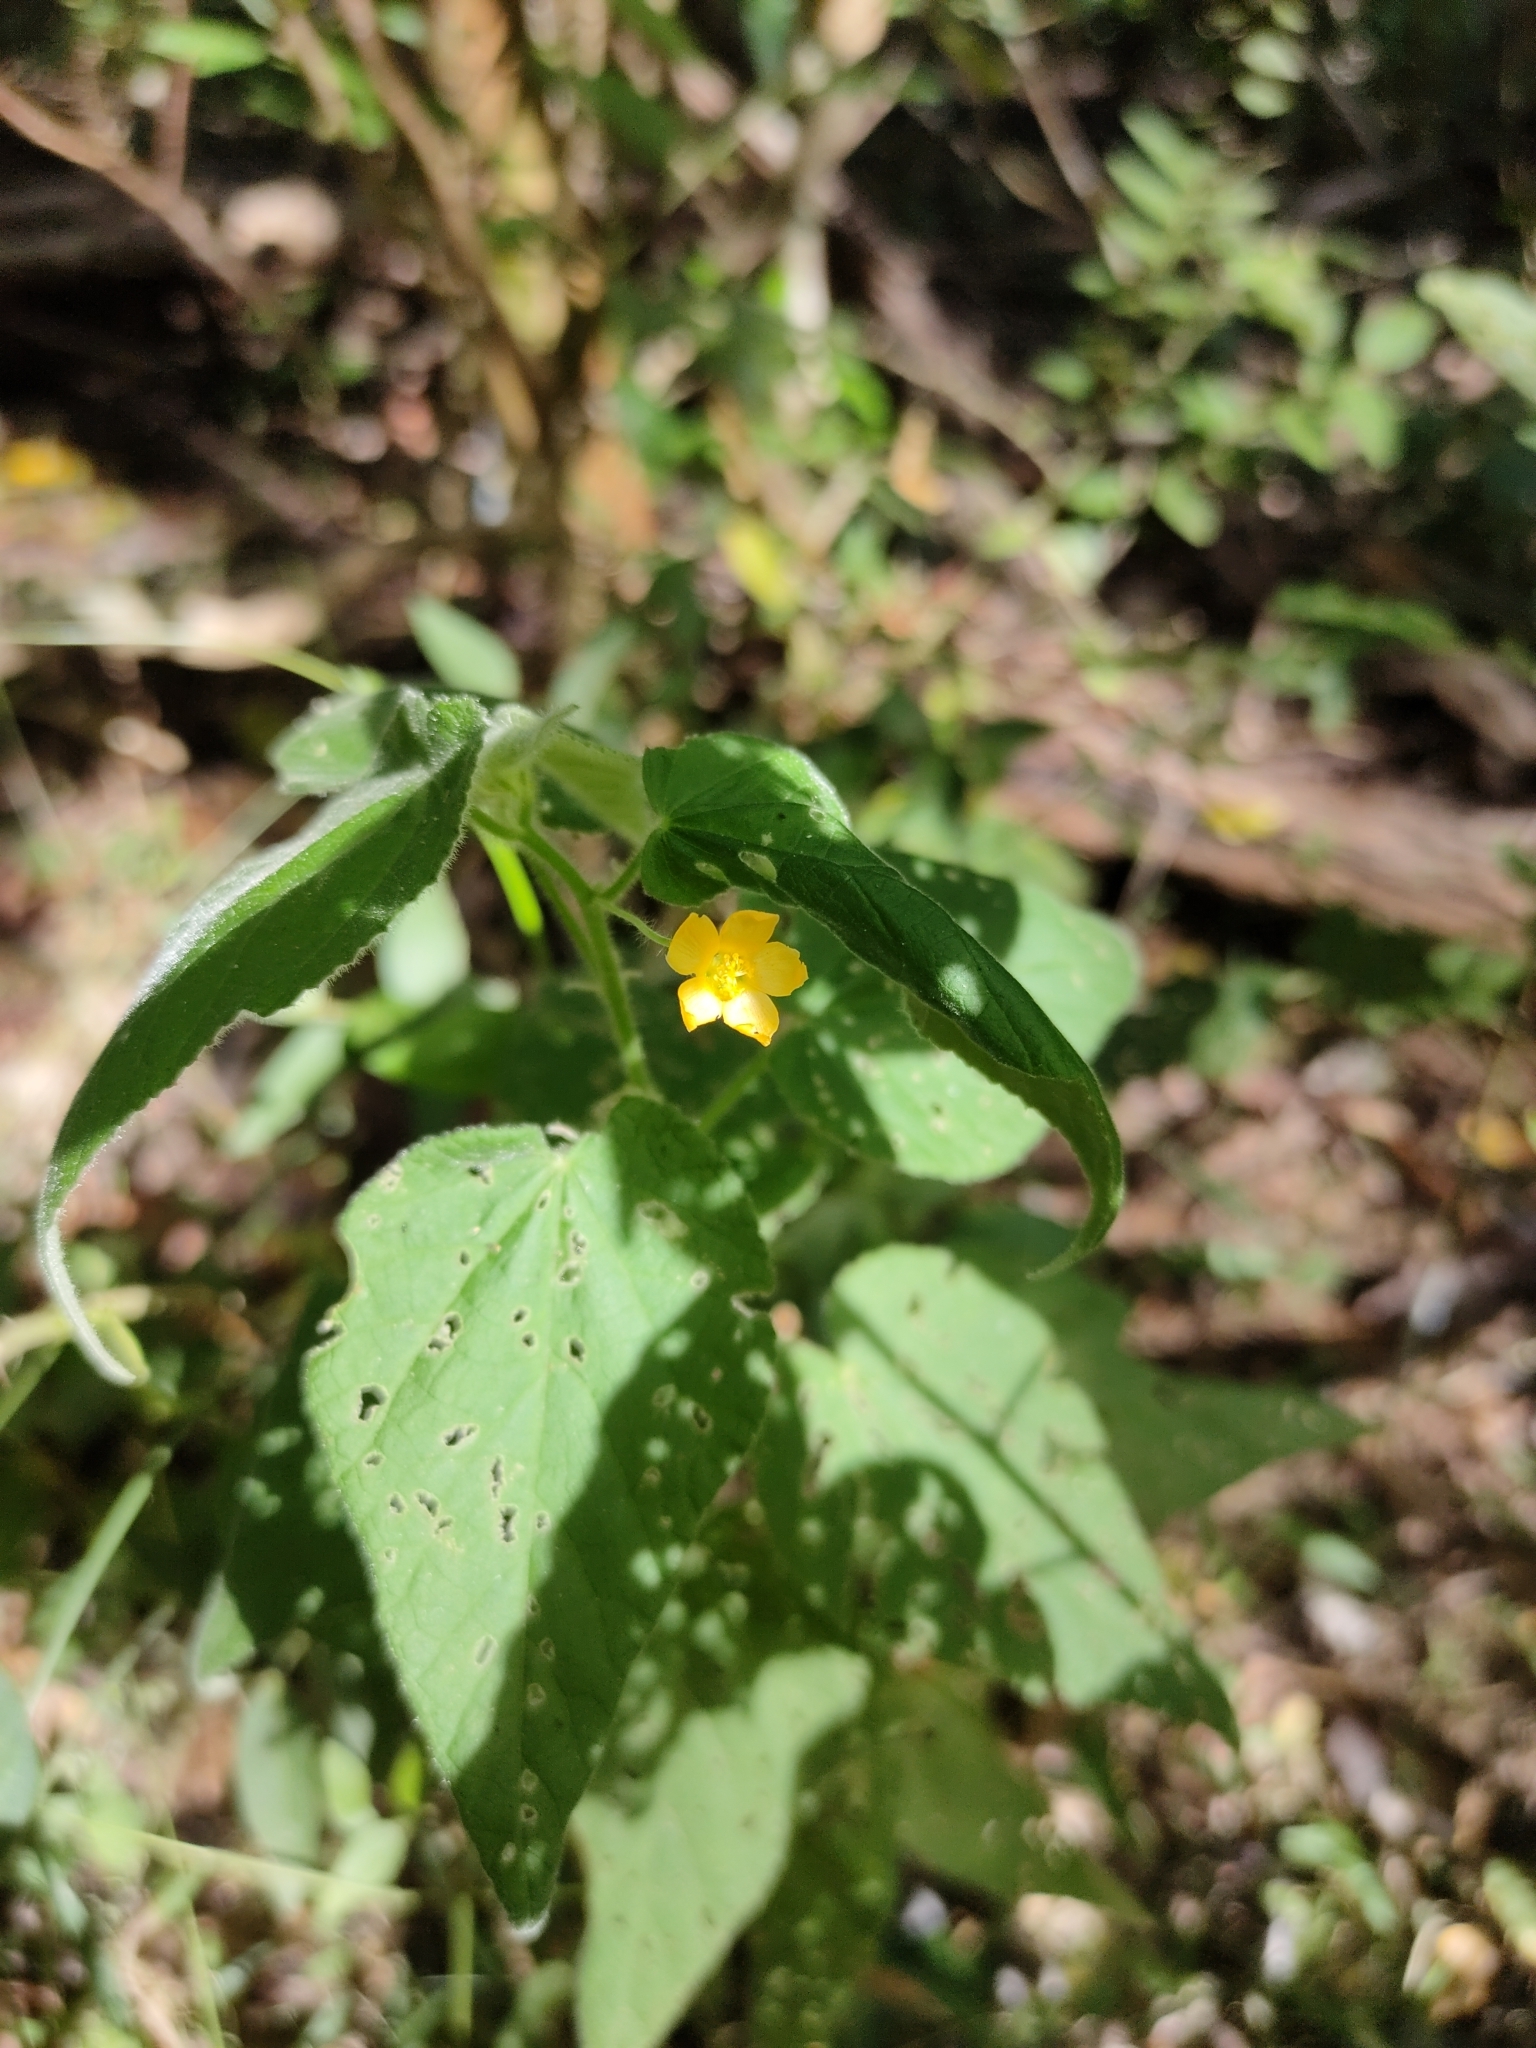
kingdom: Plantae
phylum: Tracheophyta
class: Magnoliopsida
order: Malvales
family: Malvaceae
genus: Abutilon
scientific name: Abutilon oxycarpum
